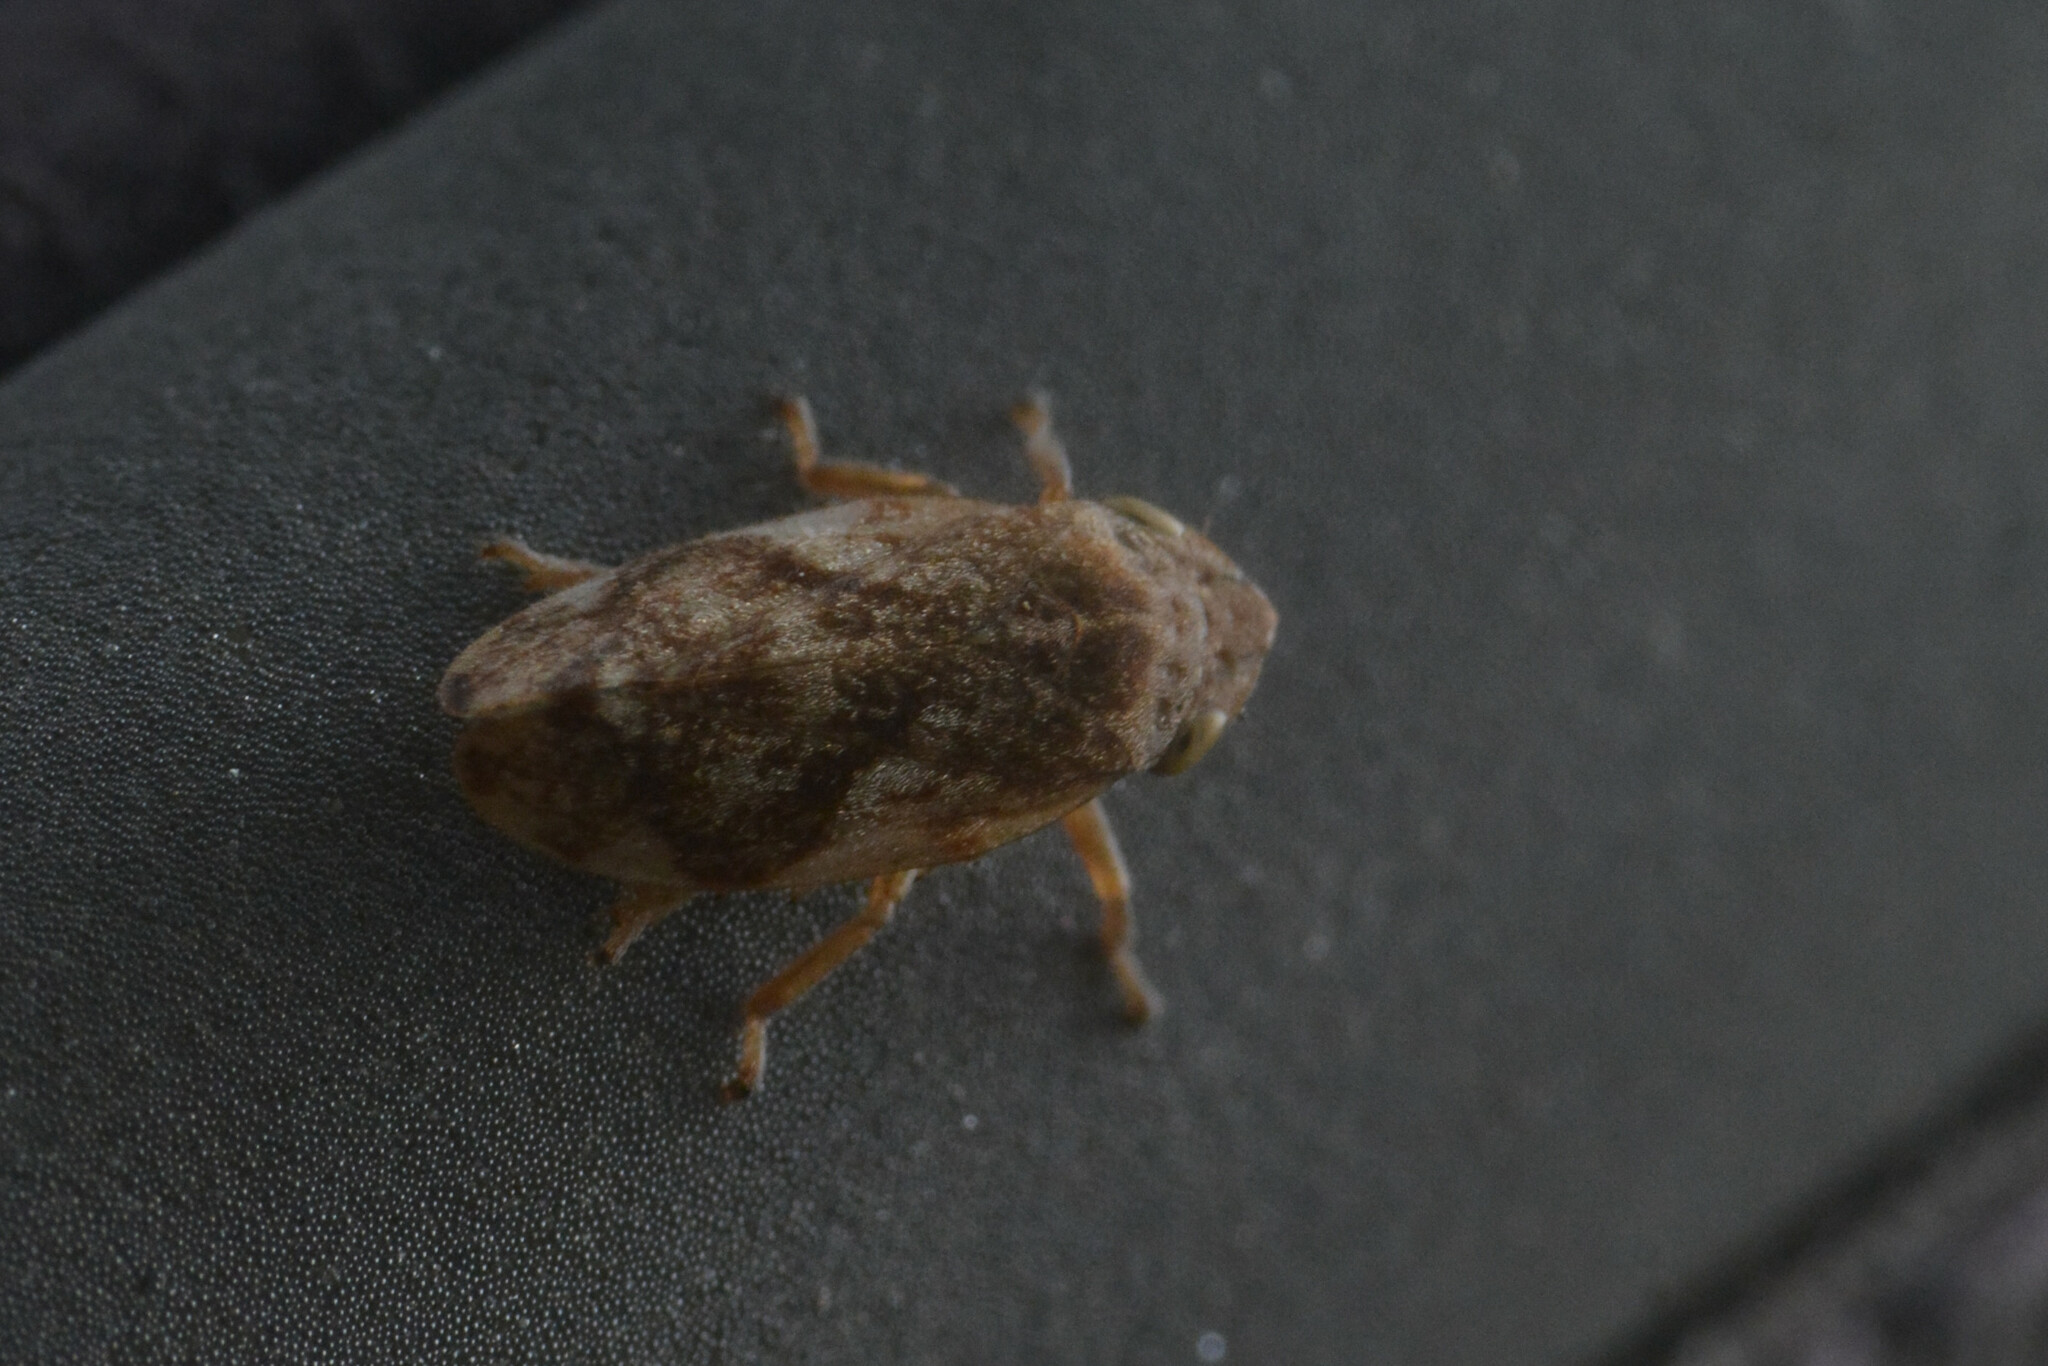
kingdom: Animalia
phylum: Arthropoda
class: Insecta
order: Hemiptera
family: Aphrophoridae
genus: Philaenus
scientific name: Philaenus spumarius
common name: Meadow spittlebug
